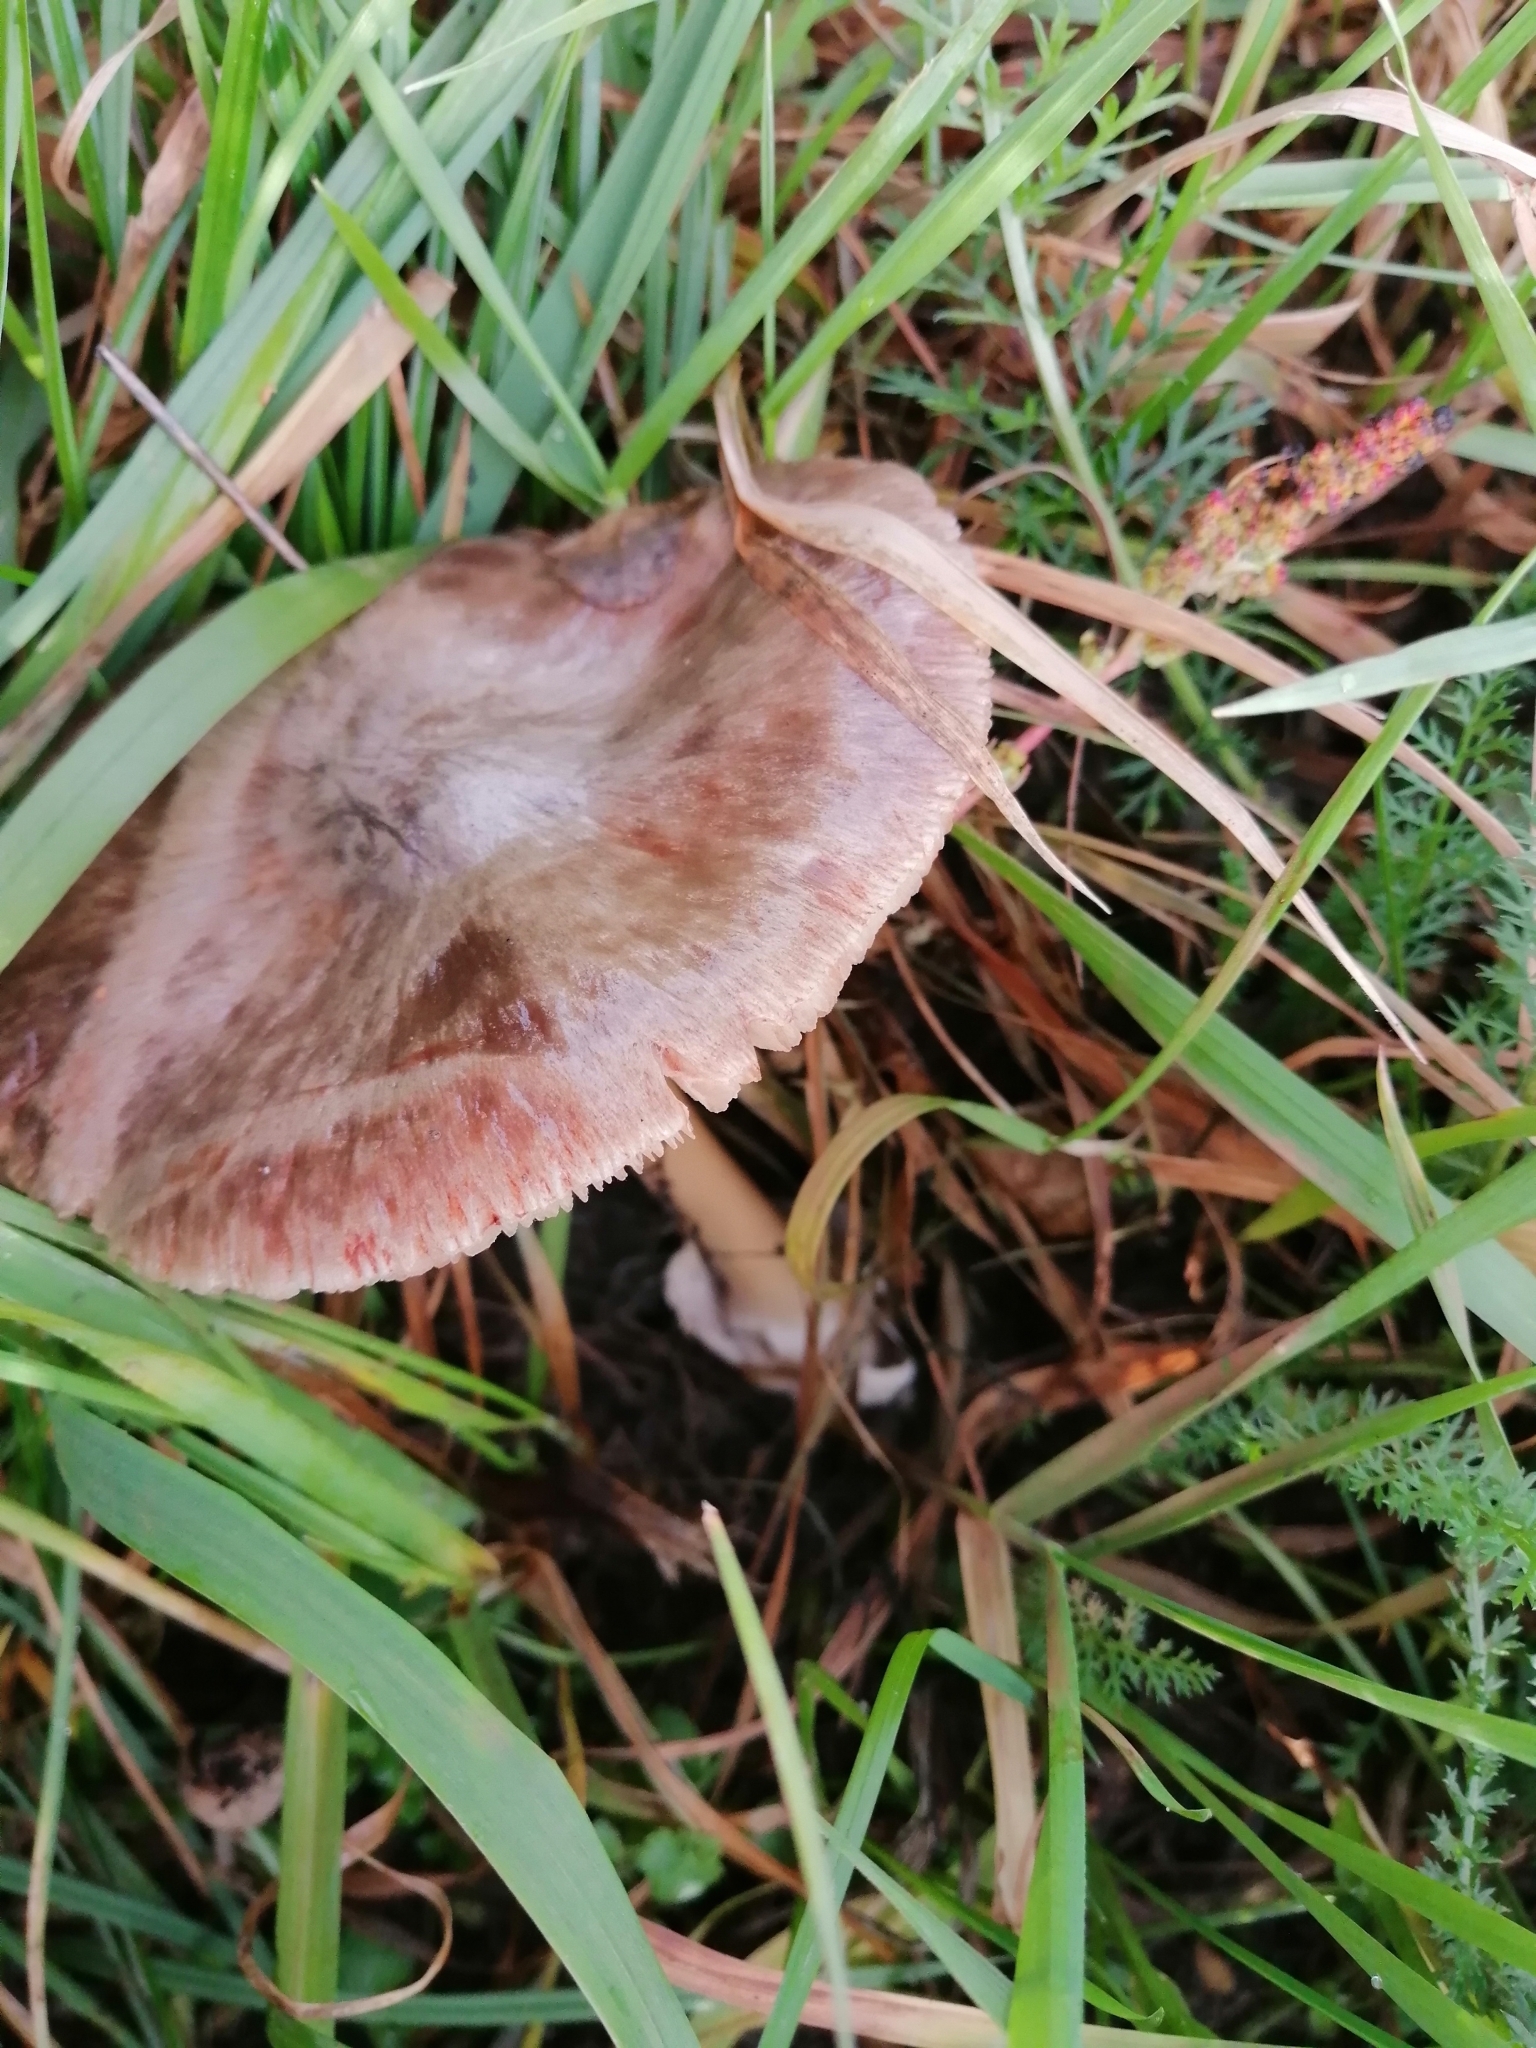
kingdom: Fungi
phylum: Basidiomycota
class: Agaricomycetes
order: Agaricales
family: Pluteaceae
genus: Volvopluteus
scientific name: Volvopluteus gloiocephalus
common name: Stubble rosegill
